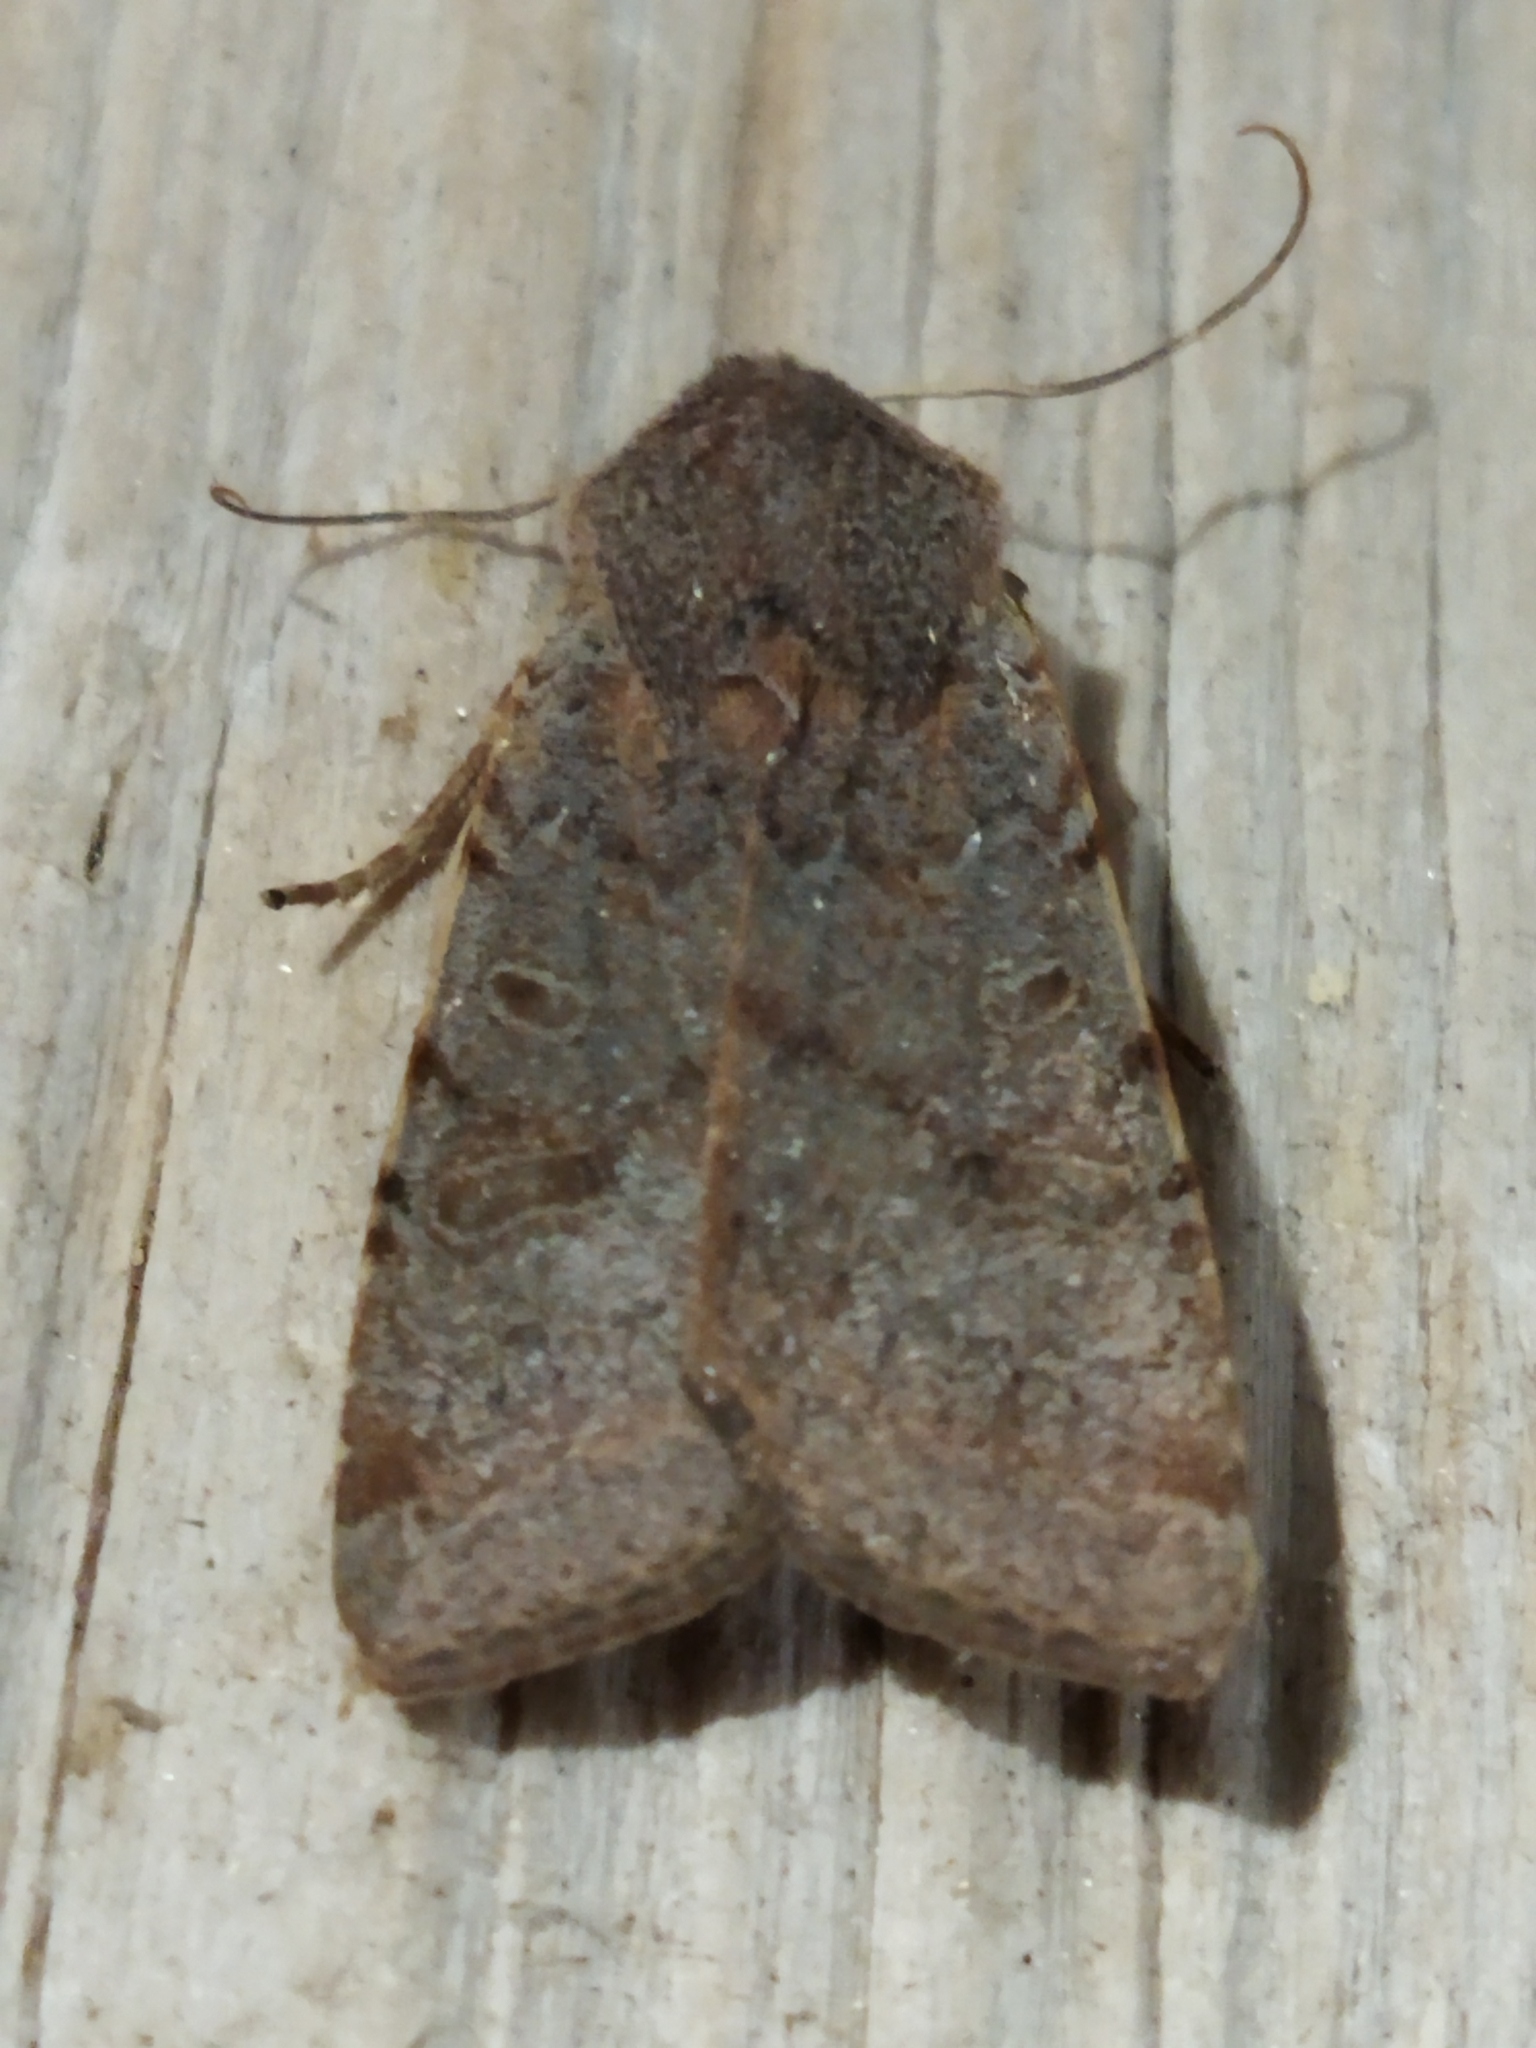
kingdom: Animalia
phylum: Arthropoda
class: Insecta
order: Lepidoptera
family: Noctuidae
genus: Agrochola
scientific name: Agrochola lychnidis
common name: Beaded chestnut
